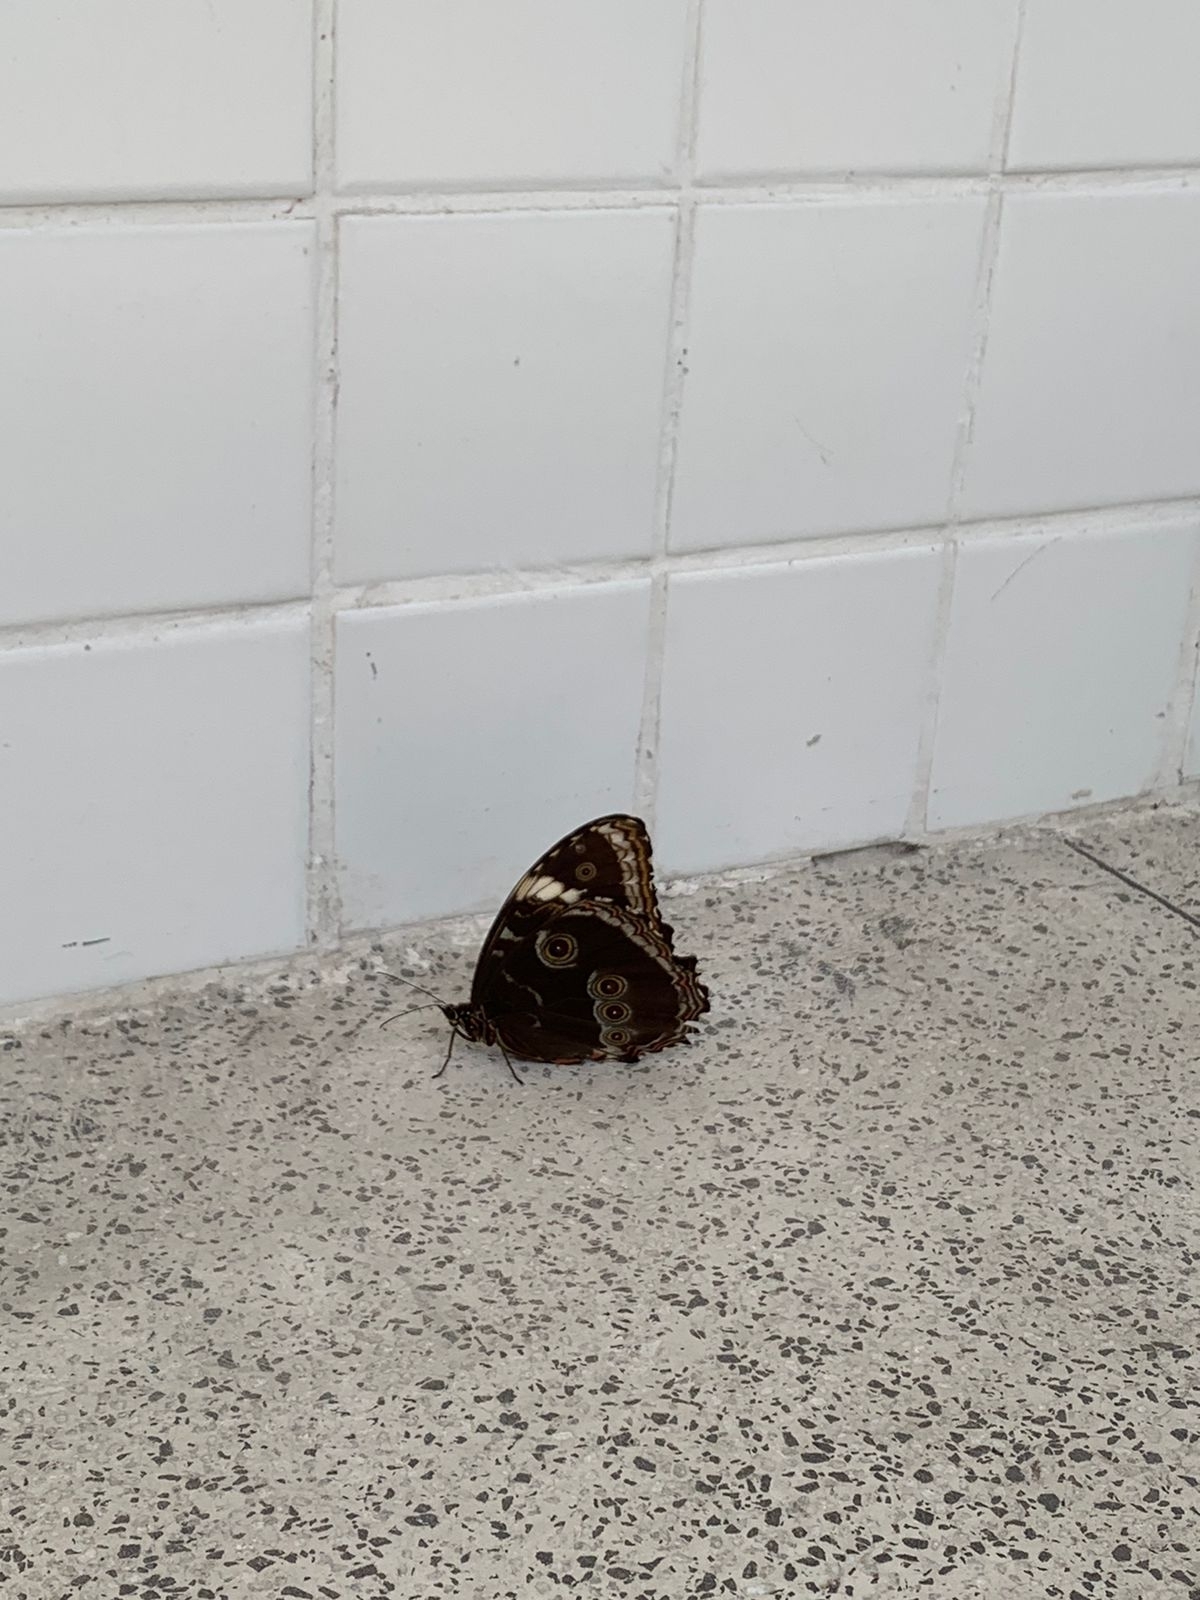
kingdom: Animalia
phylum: Arthropoda
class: Insecta
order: Lepidoptera
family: Nymphalidae
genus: Morpho
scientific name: Morpho helenor
